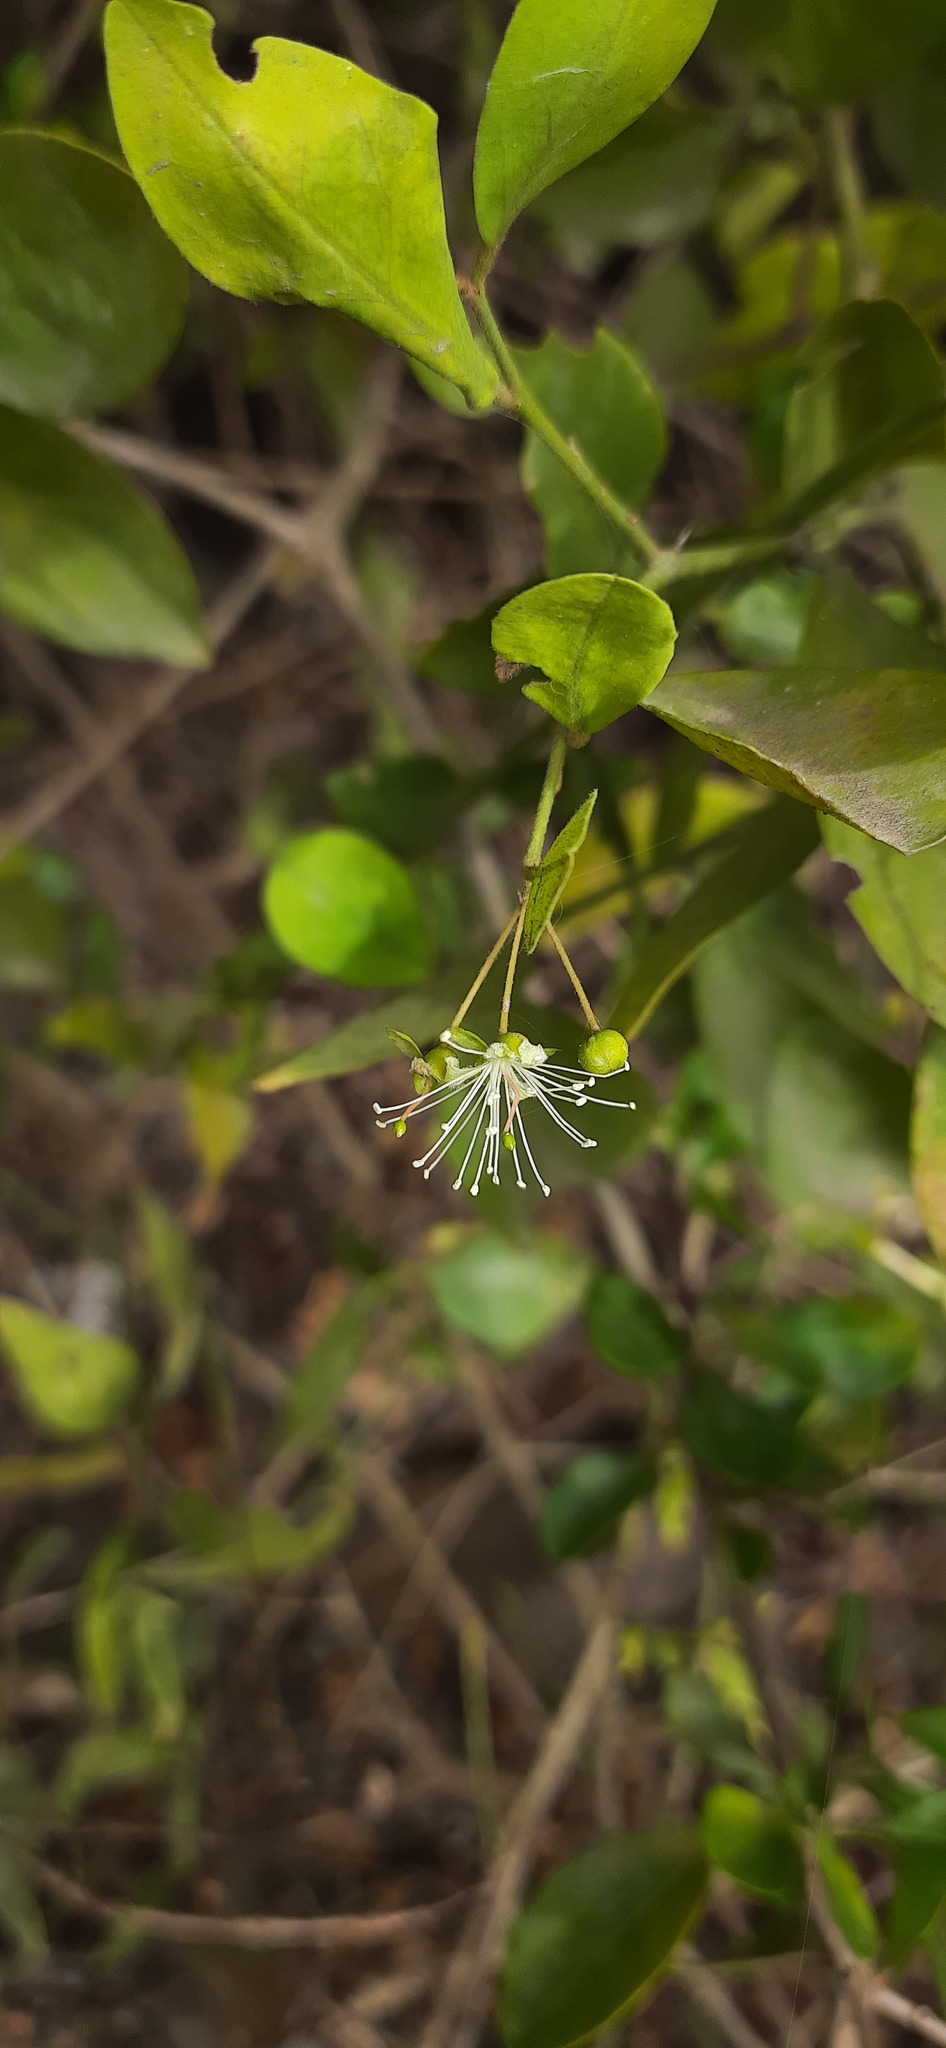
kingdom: Plantae
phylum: Tracheophyta
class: Magnoliopsida
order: Brassicales
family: Capparaceae
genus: Capparis
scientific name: Capparis sepiaria
